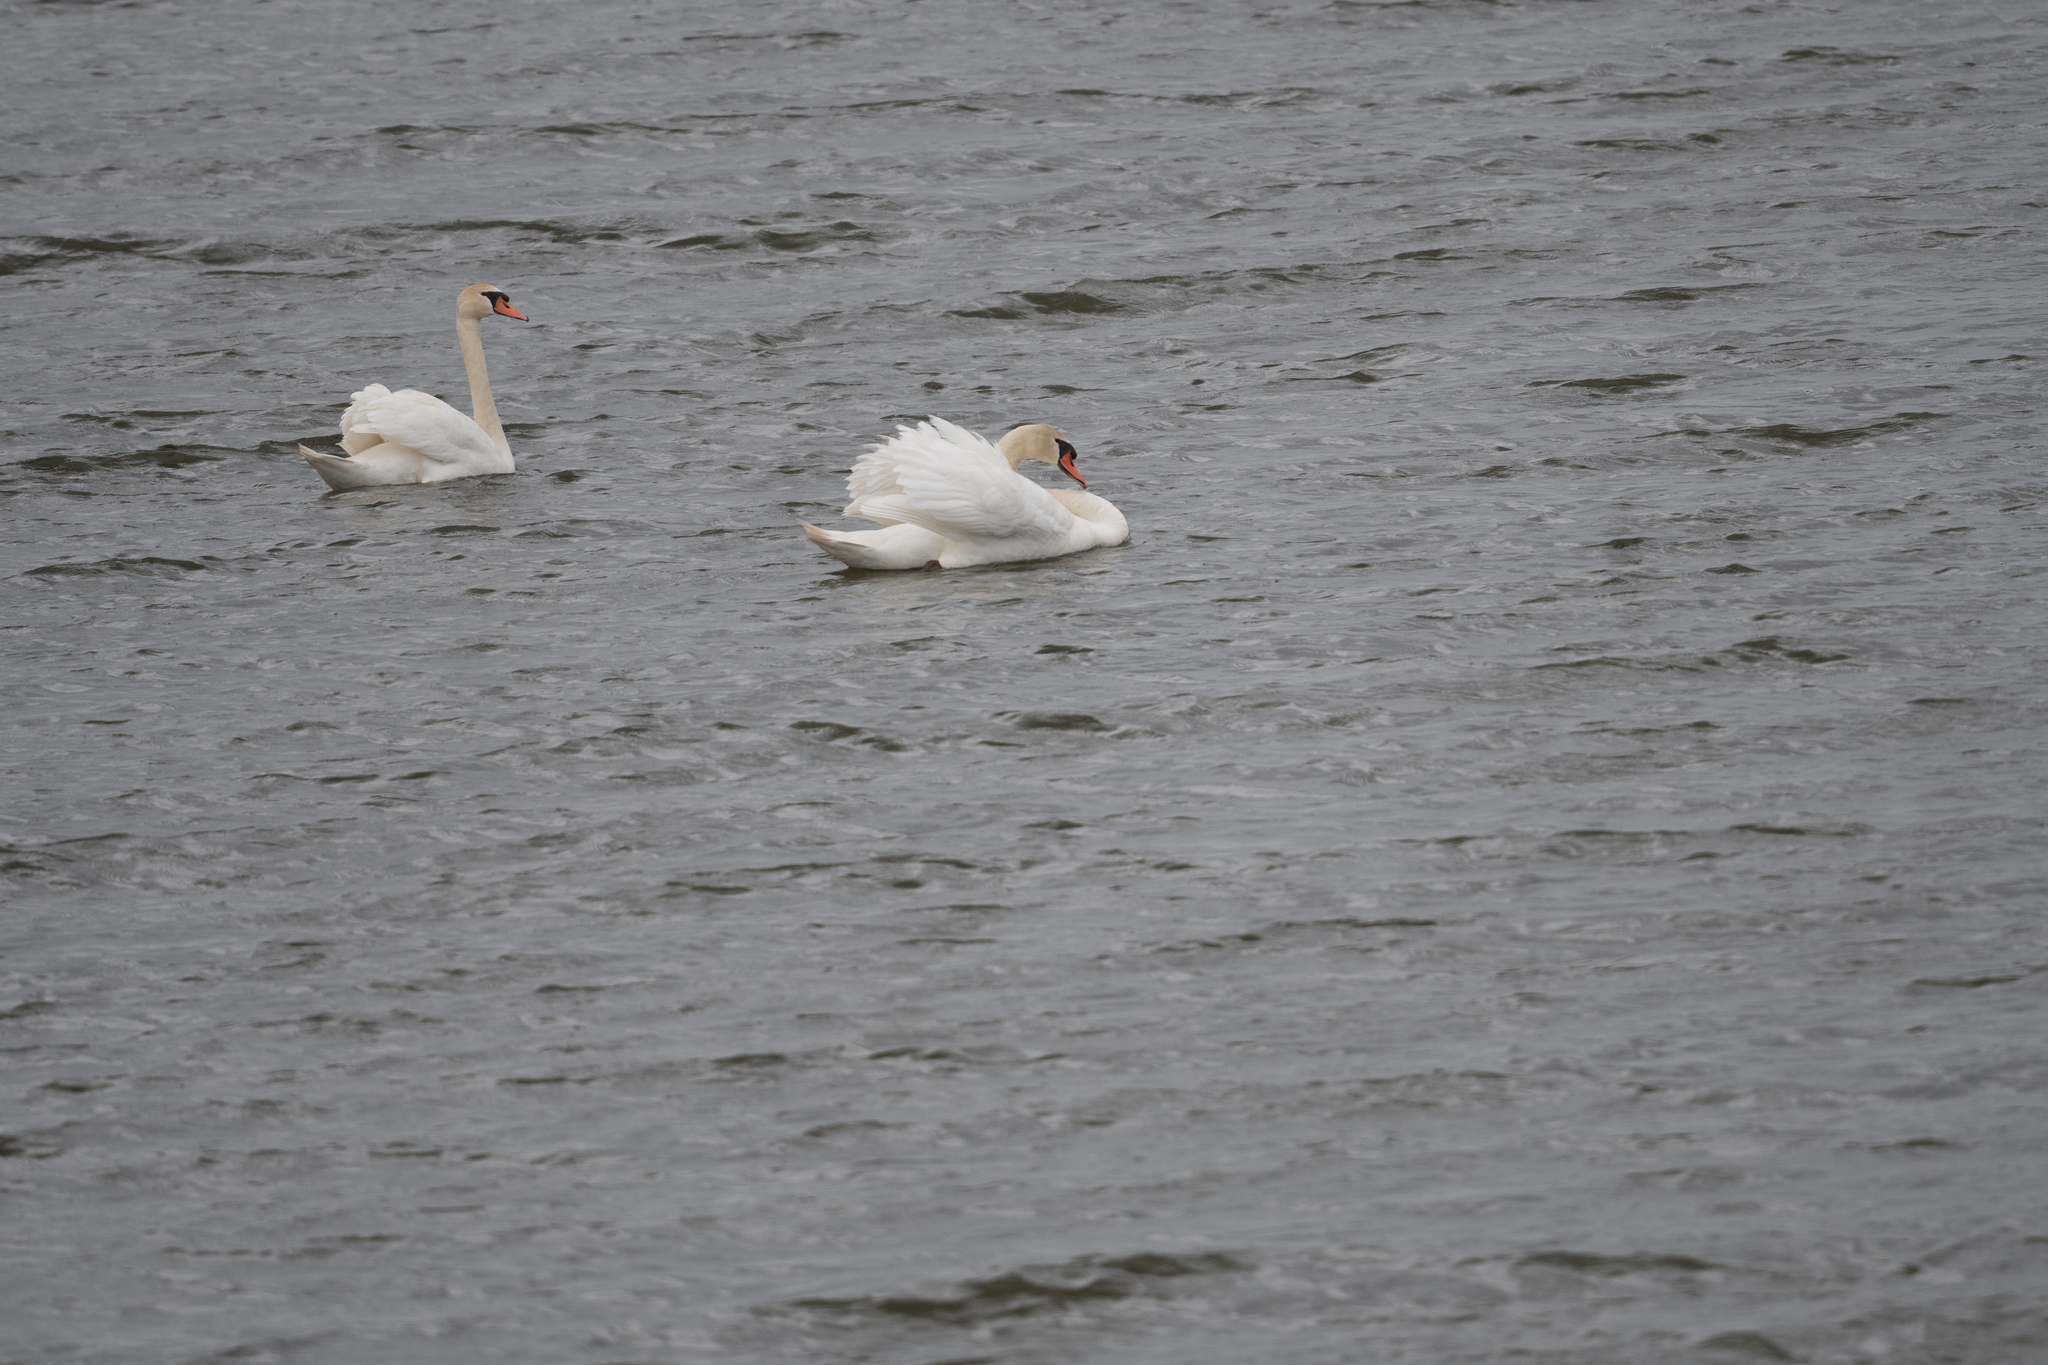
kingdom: Animalia
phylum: Chordata
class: Aves
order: Anseriformes
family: Anatidae
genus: Cygnus
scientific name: Cygnus olor
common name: Mute swan
